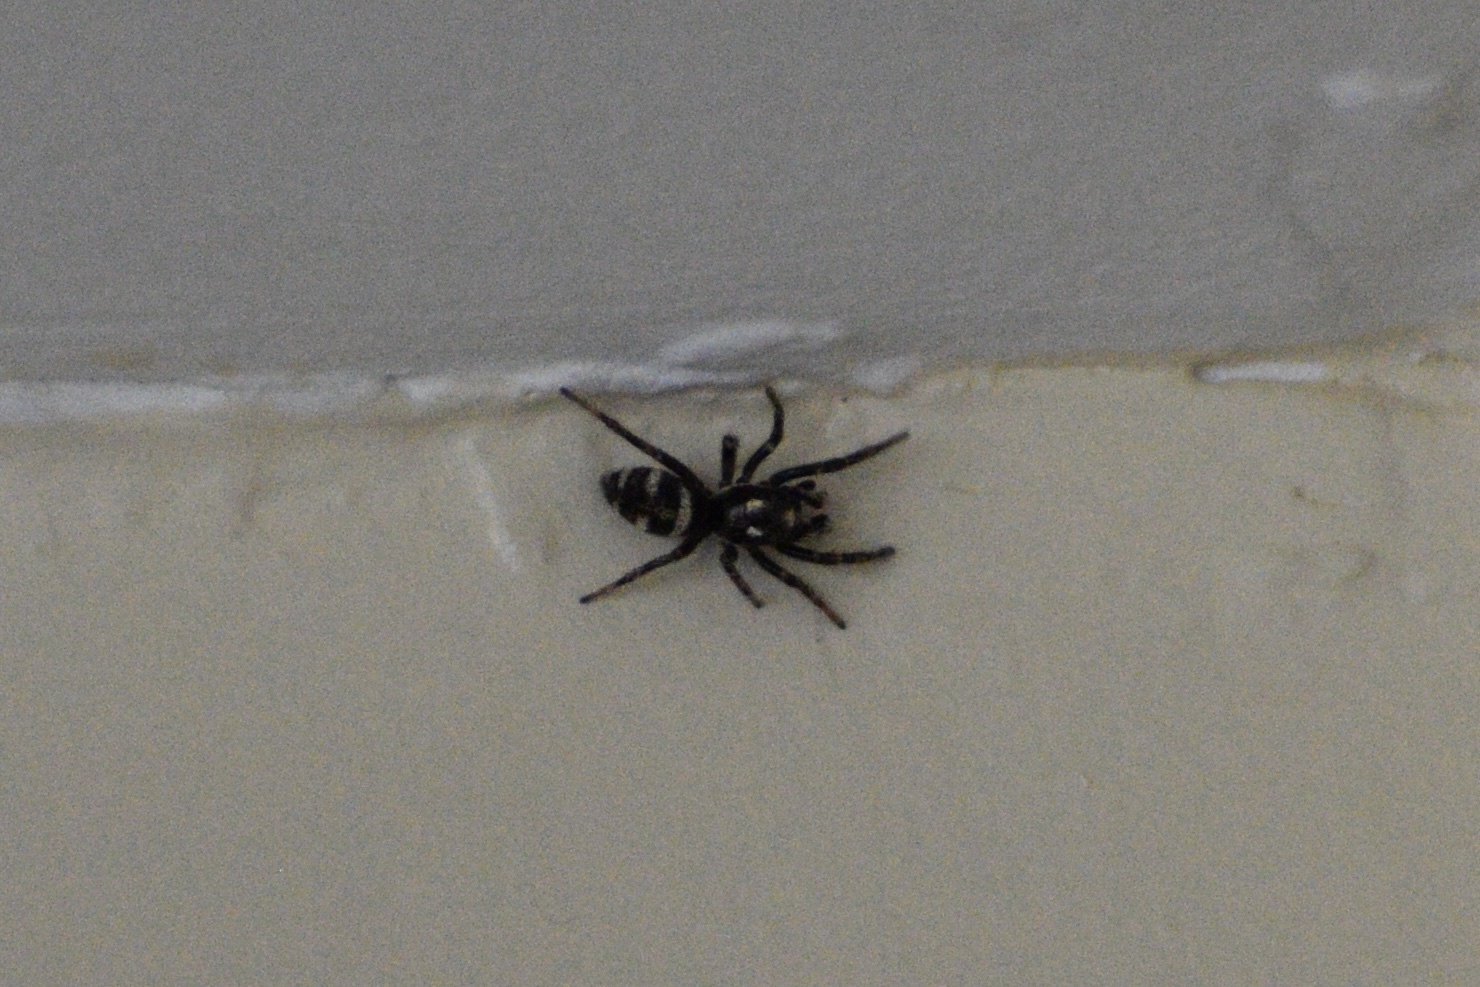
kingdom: Animalia
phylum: Arthropoda
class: Arachnida
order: Araneae
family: Salticidae
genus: Salticus
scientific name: Salticus scenicus
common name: Zebra jumper
